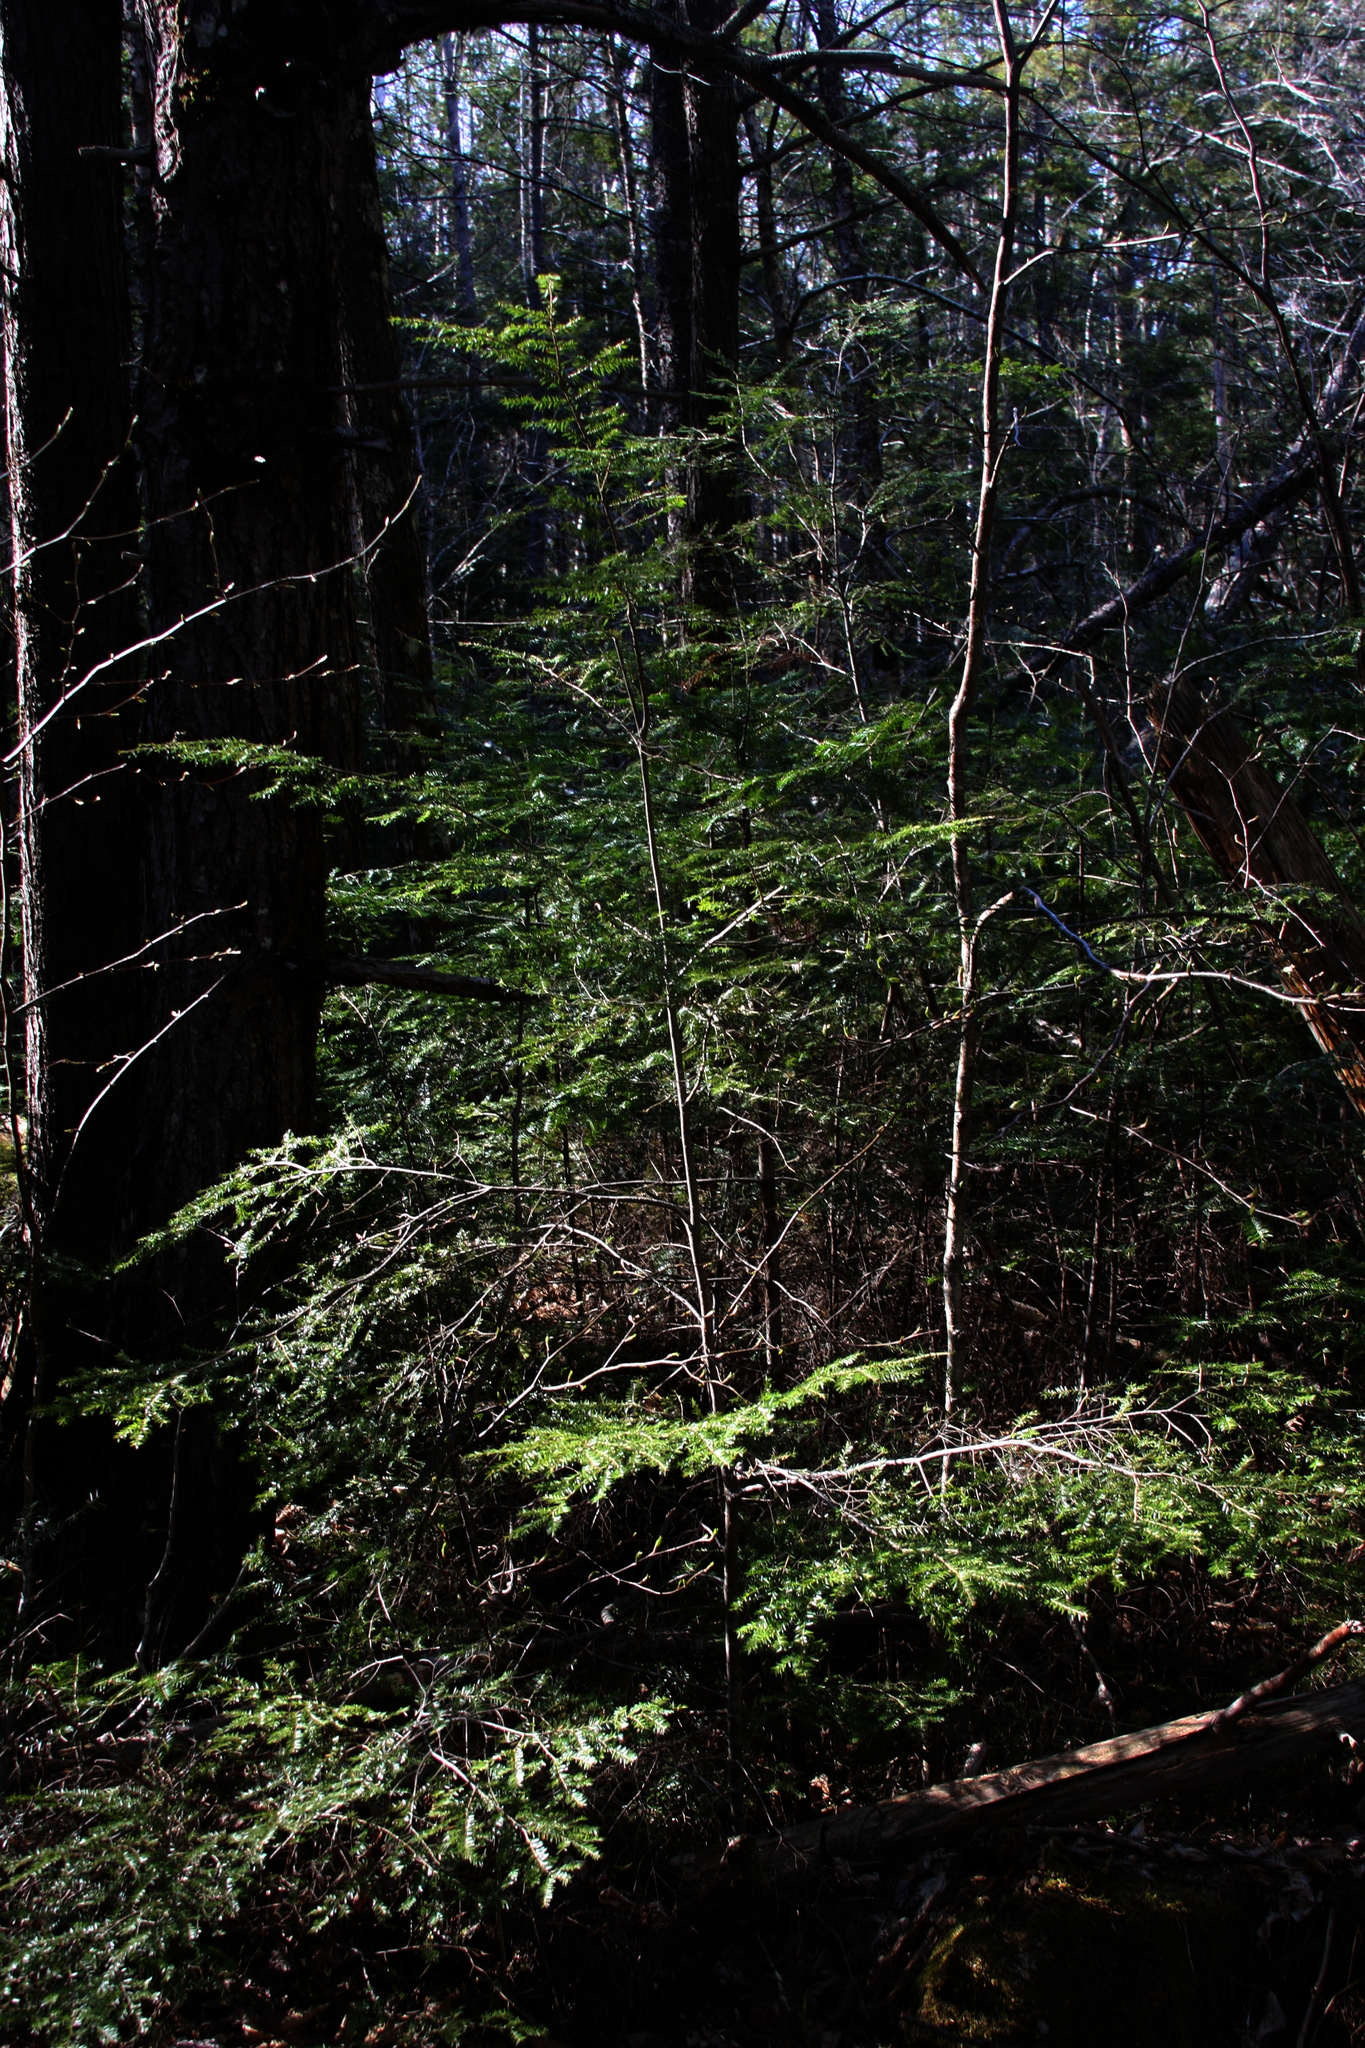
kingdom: Plantae
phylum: Tracheophyta
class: Pinopsida
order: Pinales
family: Pinaceae
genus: Tsuga
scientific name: Tsuga canadensis
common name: Eastern hemlock
